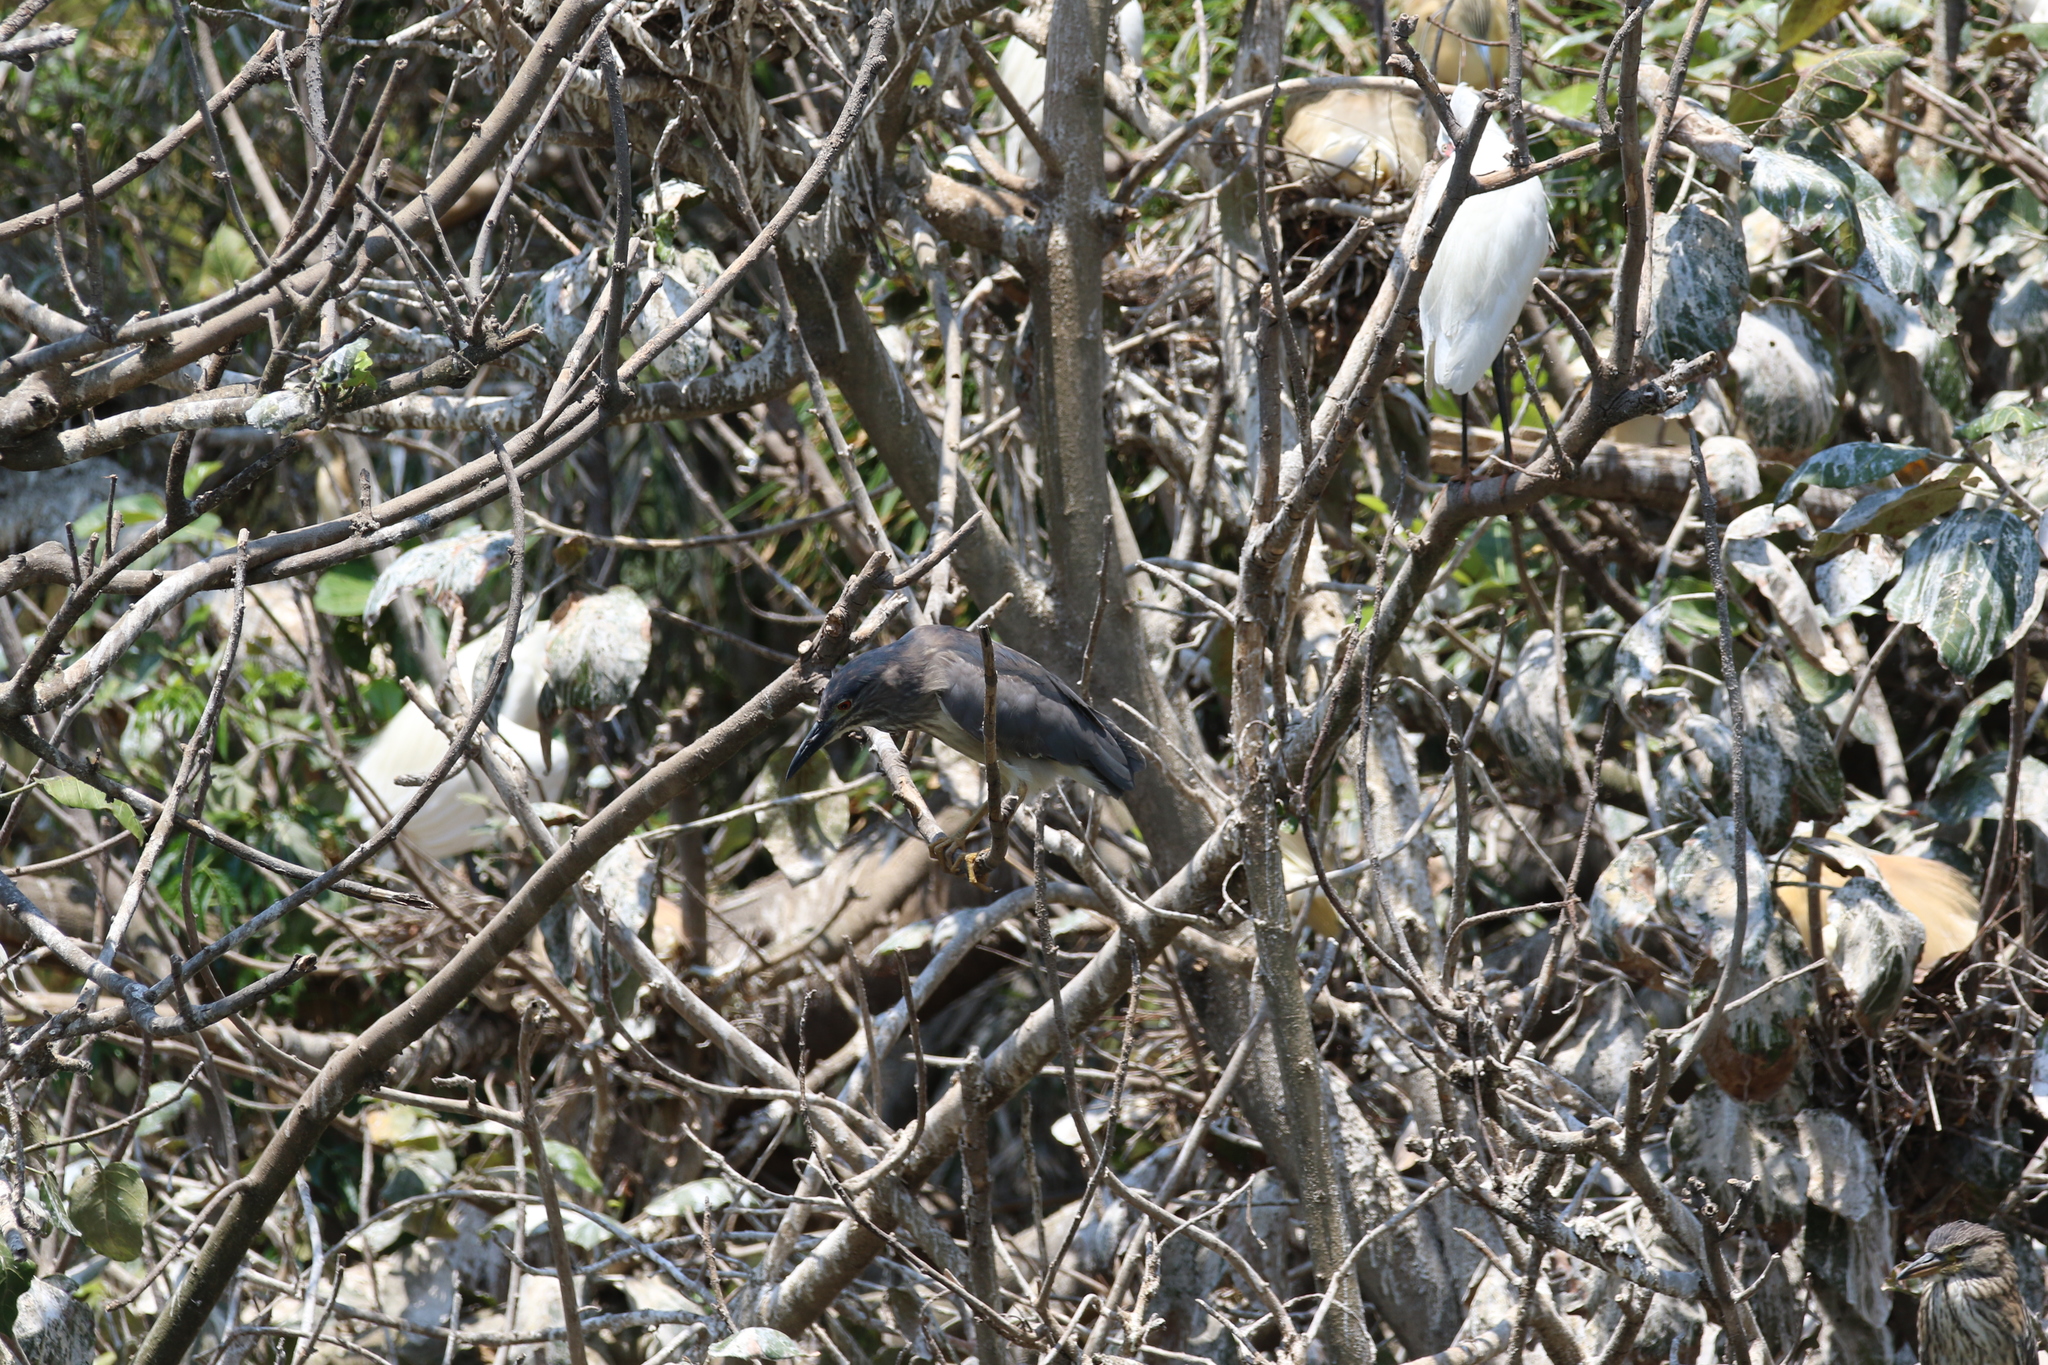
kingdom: Animalia
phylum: Chordata
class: Aves
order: Pelecaniformes
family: Ardeidae
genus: Nycticorax
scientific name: Nycticorax nycticorax
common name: Black-crowned night heron
